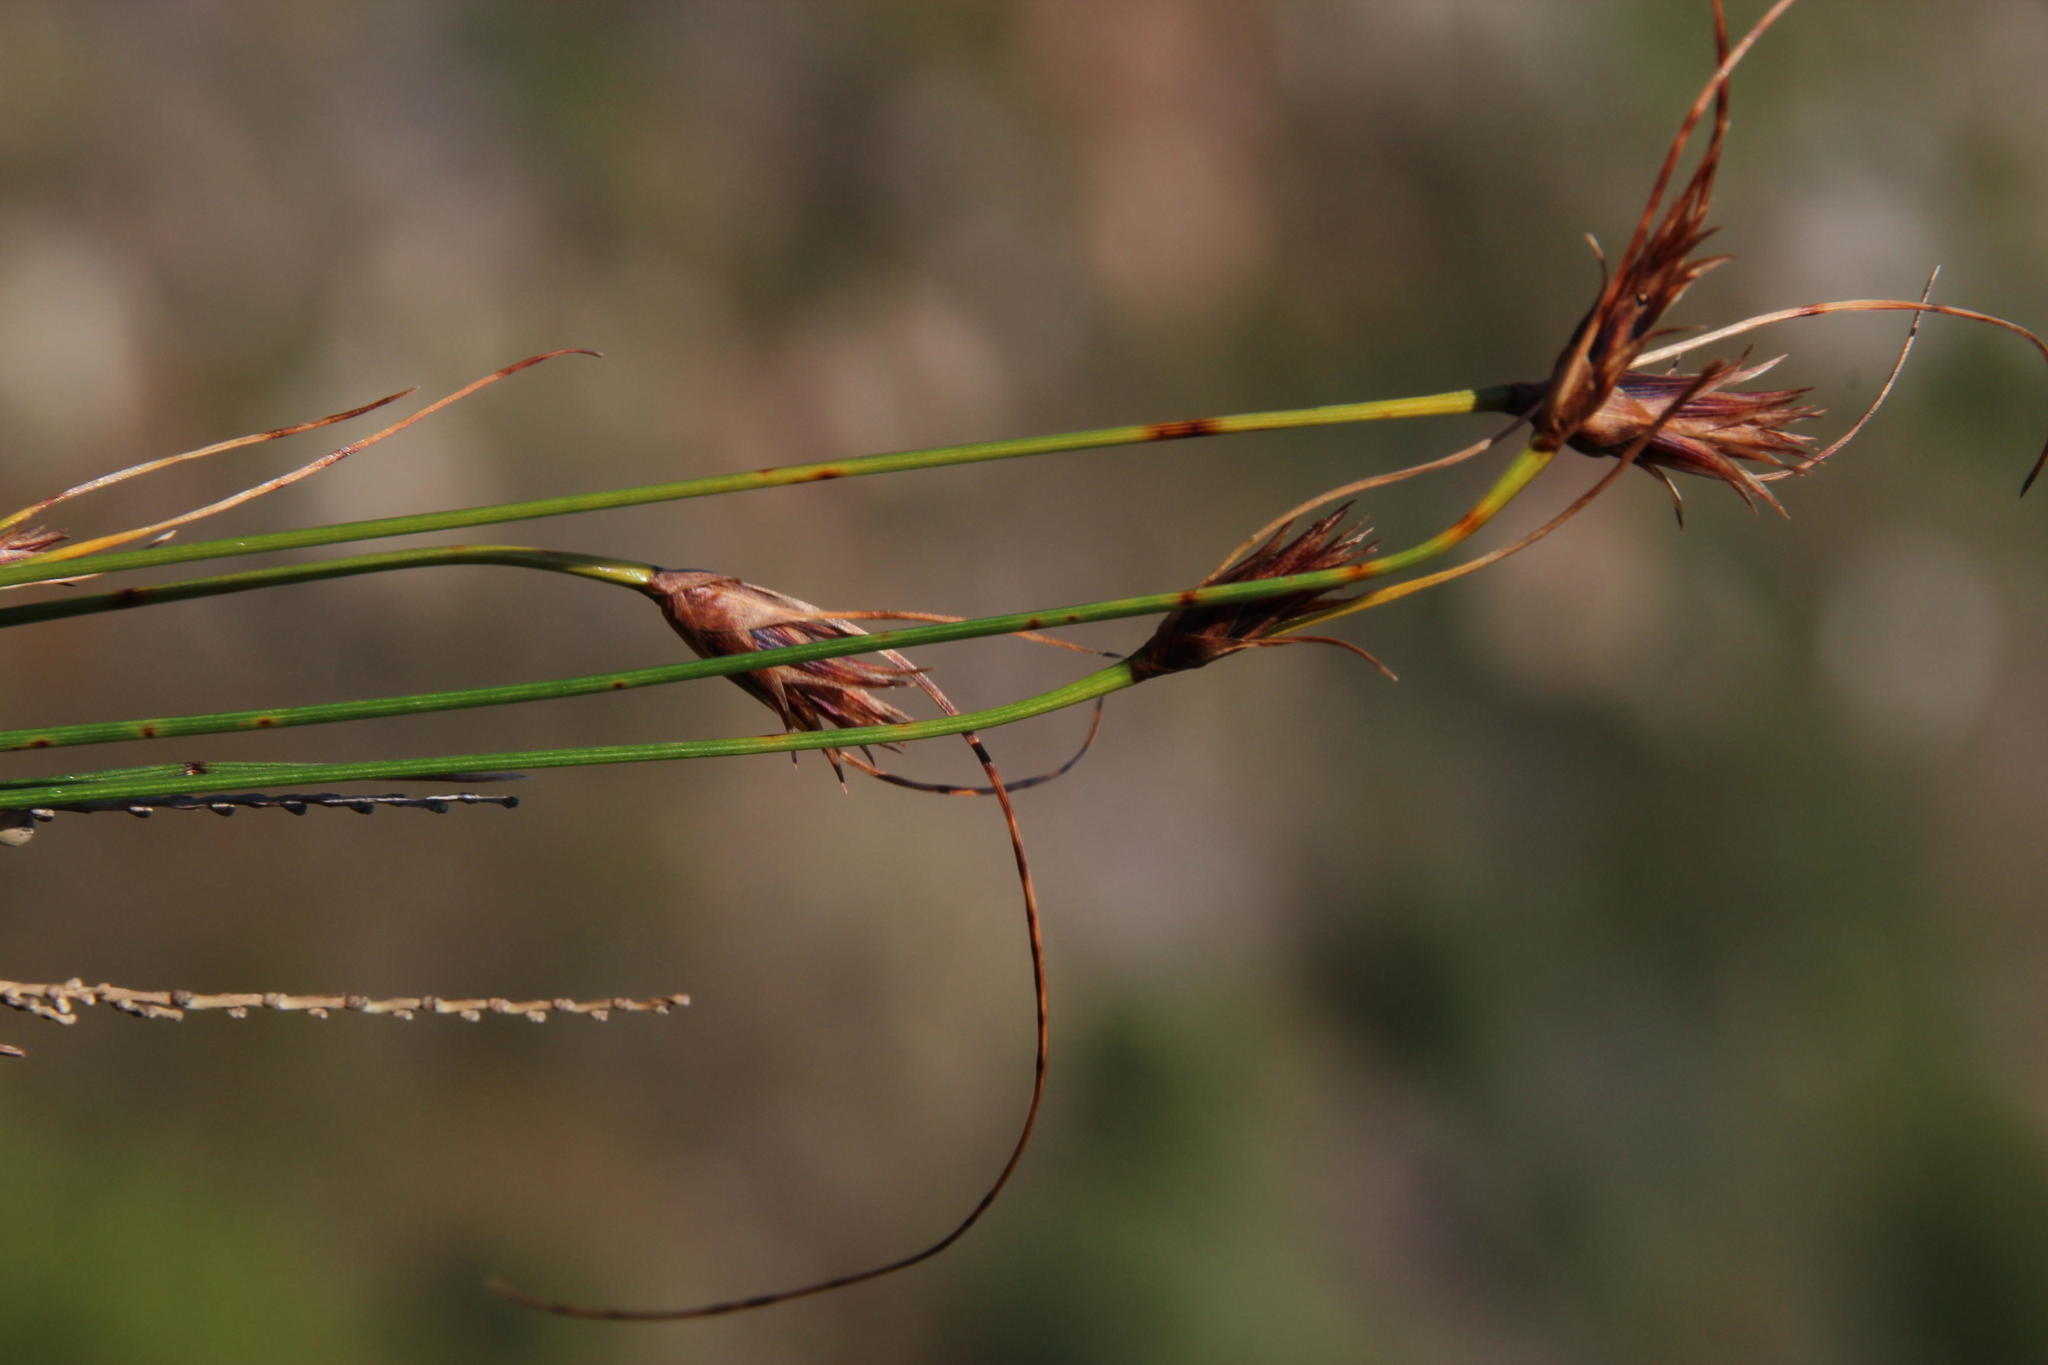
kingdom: Plantae
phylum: Tracheophyta
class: Liliopsida
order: Poales
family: Cyperaceae
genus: Ficinia
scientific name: Ficinia nigrescens
